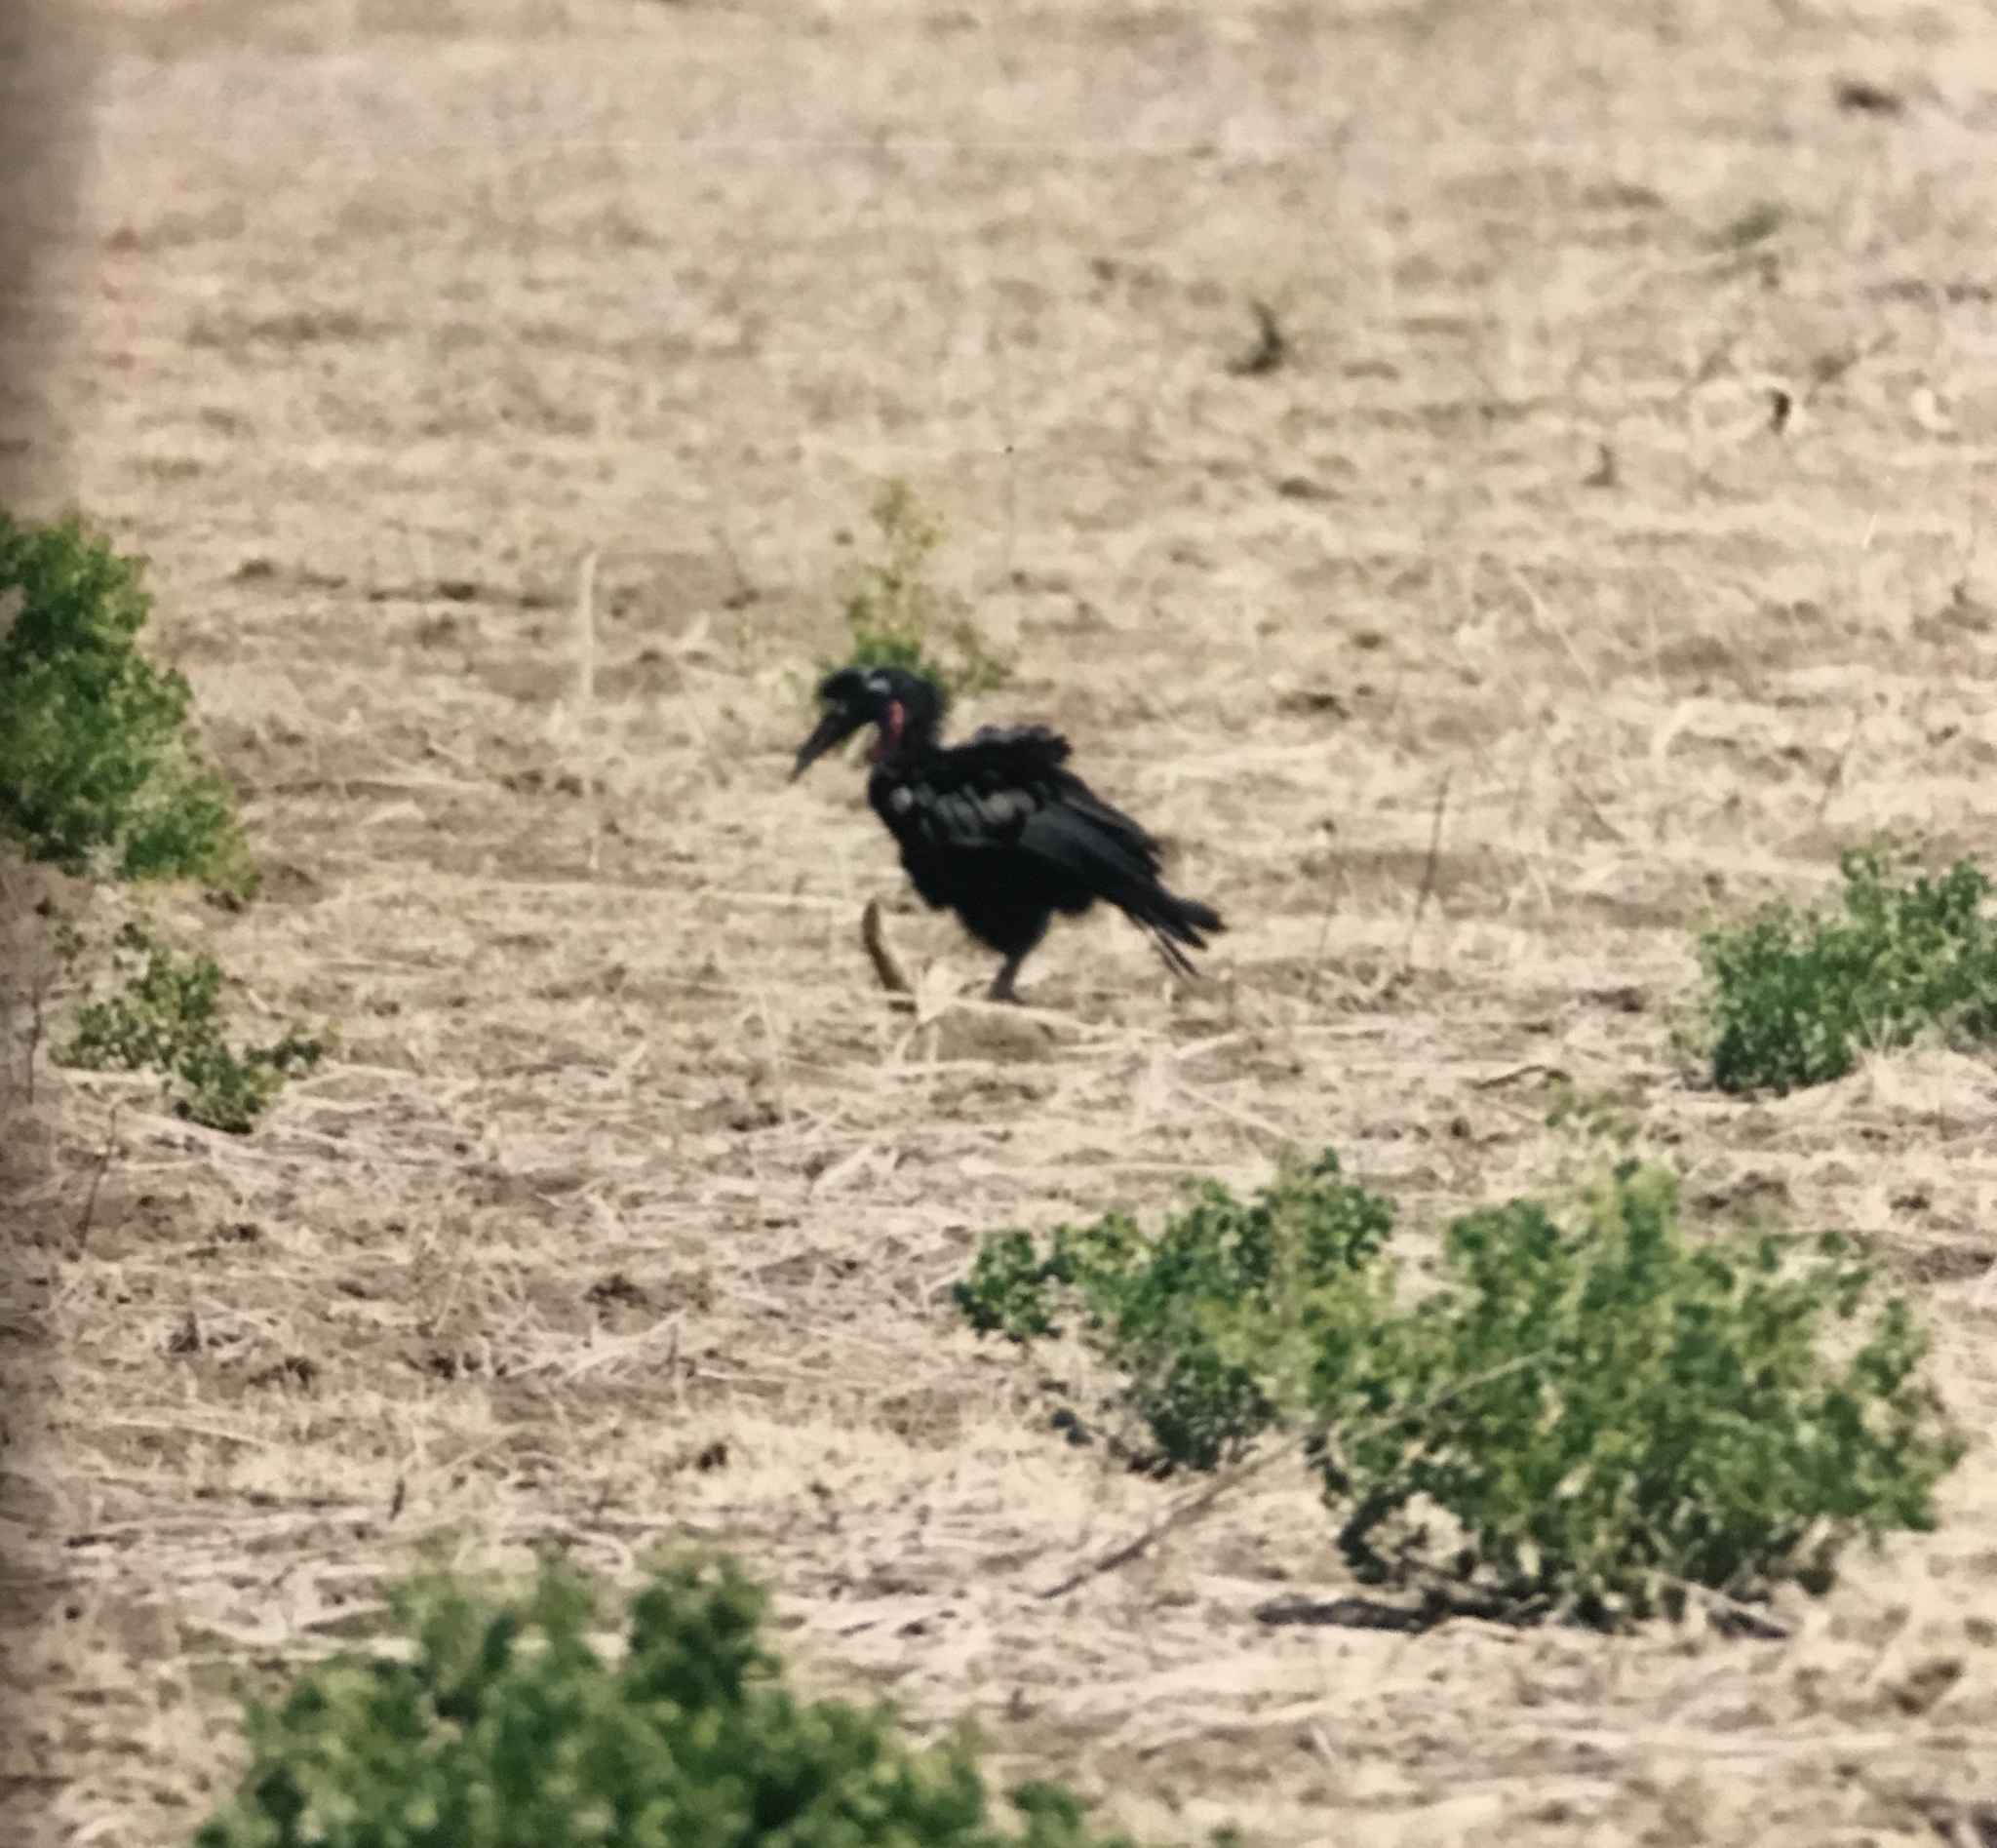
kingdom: Animalia
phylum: Chordata
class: Aves
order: Bucerotiformes
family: Bucorvidae
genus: Bucorvus
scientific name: Bucorvus abyssinicus
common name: Abyssinian ground hornbill
